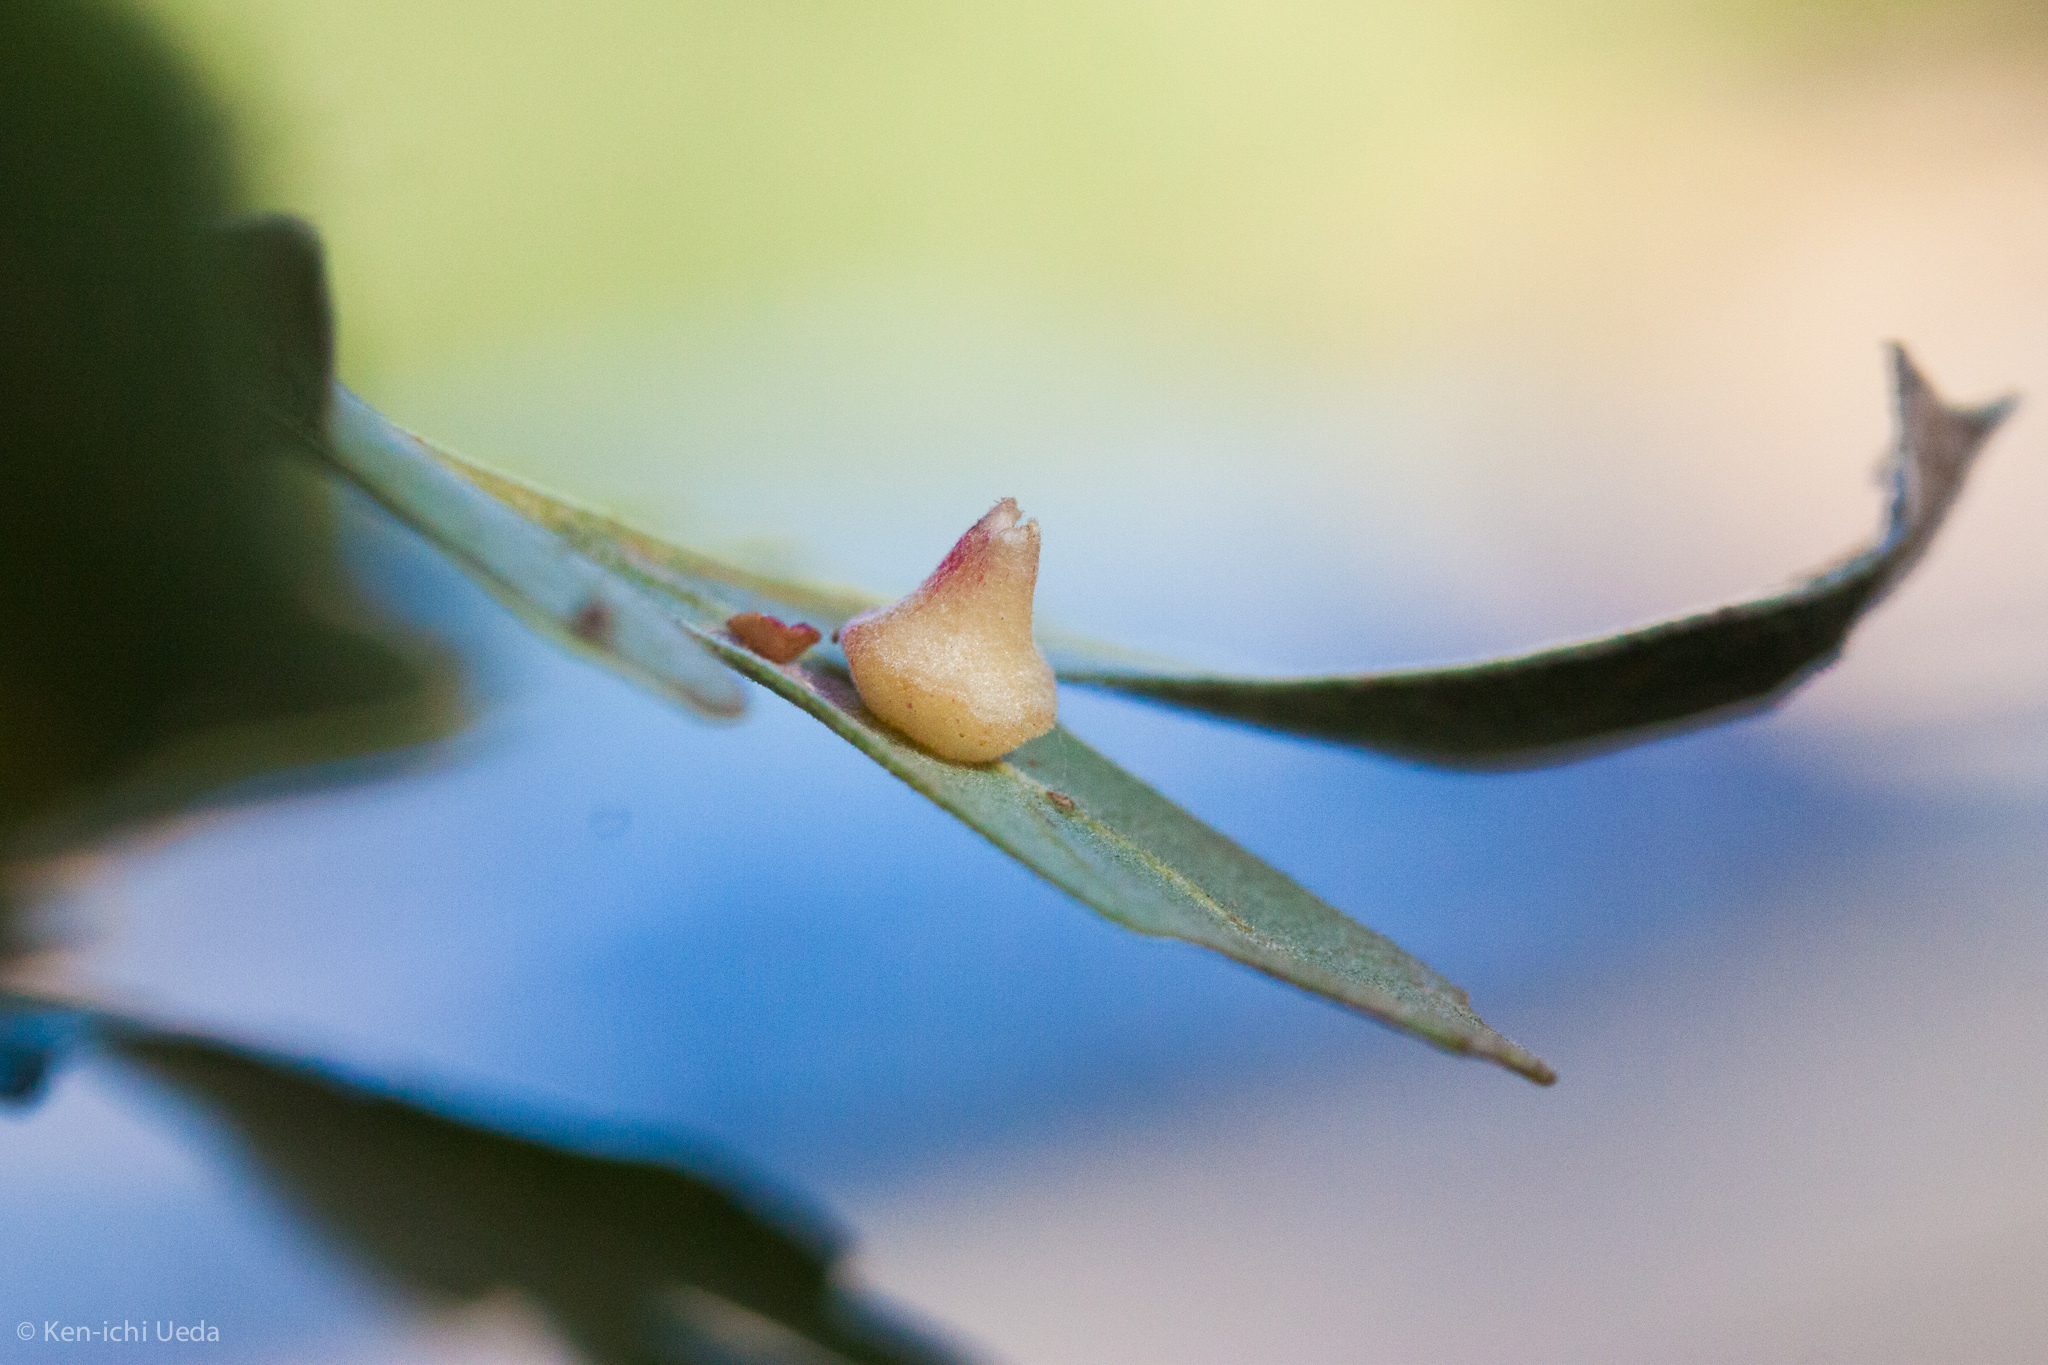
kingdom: Animalia
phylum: Arthropoda
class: Insecta
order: Hymenoptera
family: Cynipidae
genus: Andricus
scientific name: Andricus
